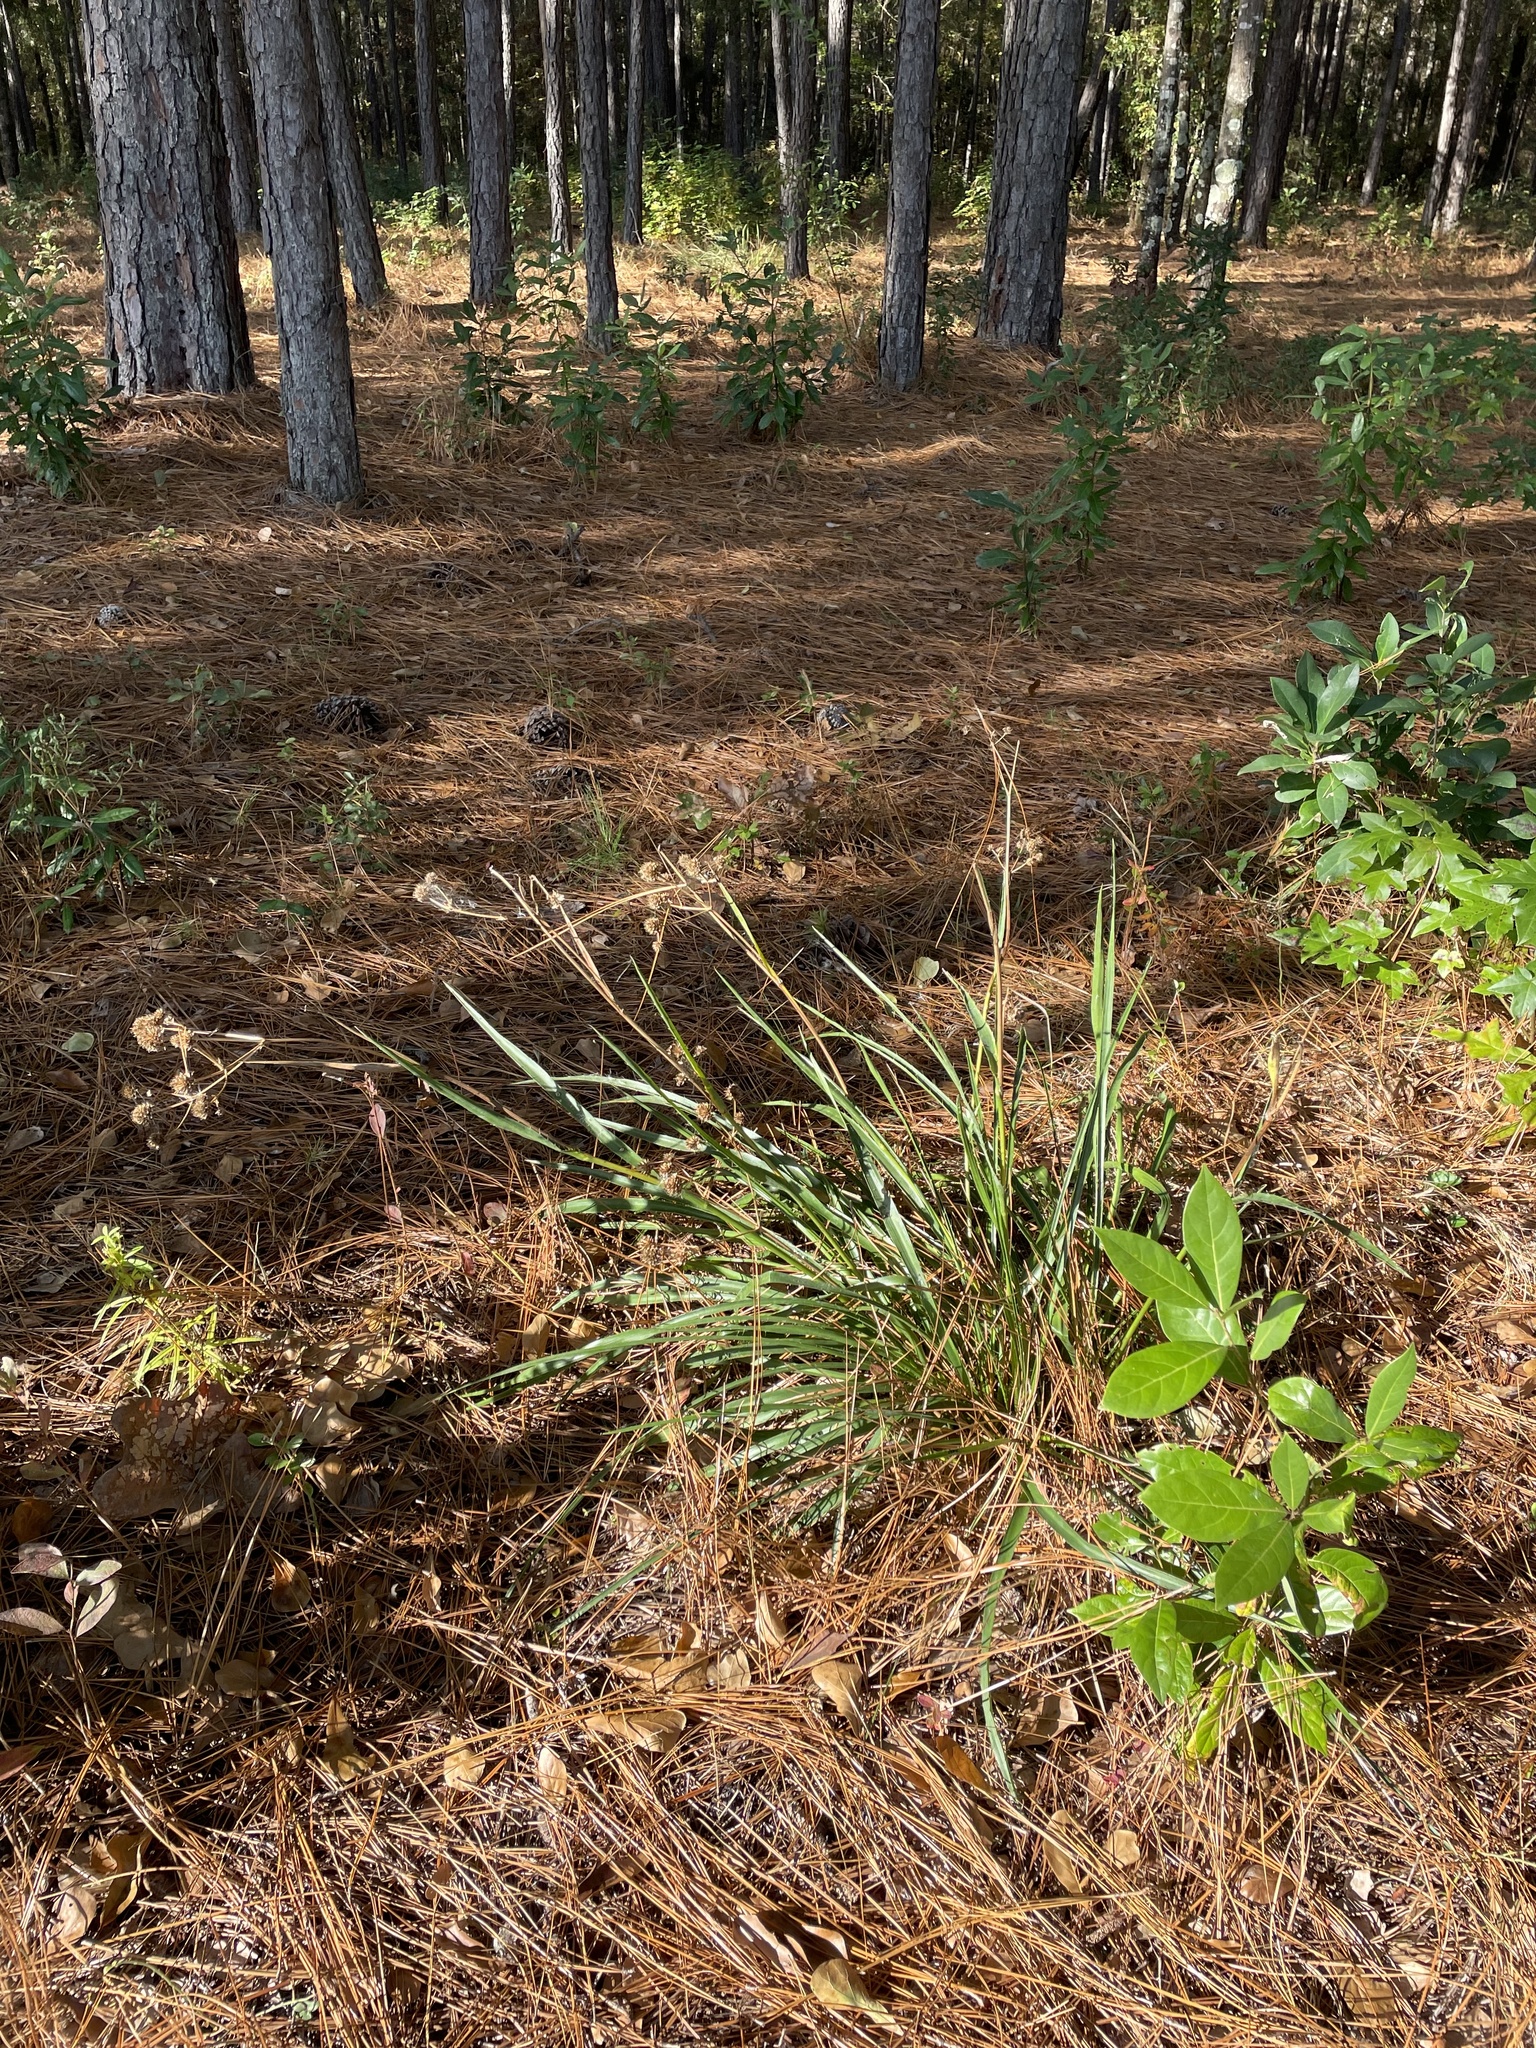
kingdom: Plantae
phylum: Tracheophyta
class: Magnoliopsida
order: Apiales
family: Apiaceae
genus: Eryngium
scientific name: Eryngium yuccifolium
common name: Button eryngo
